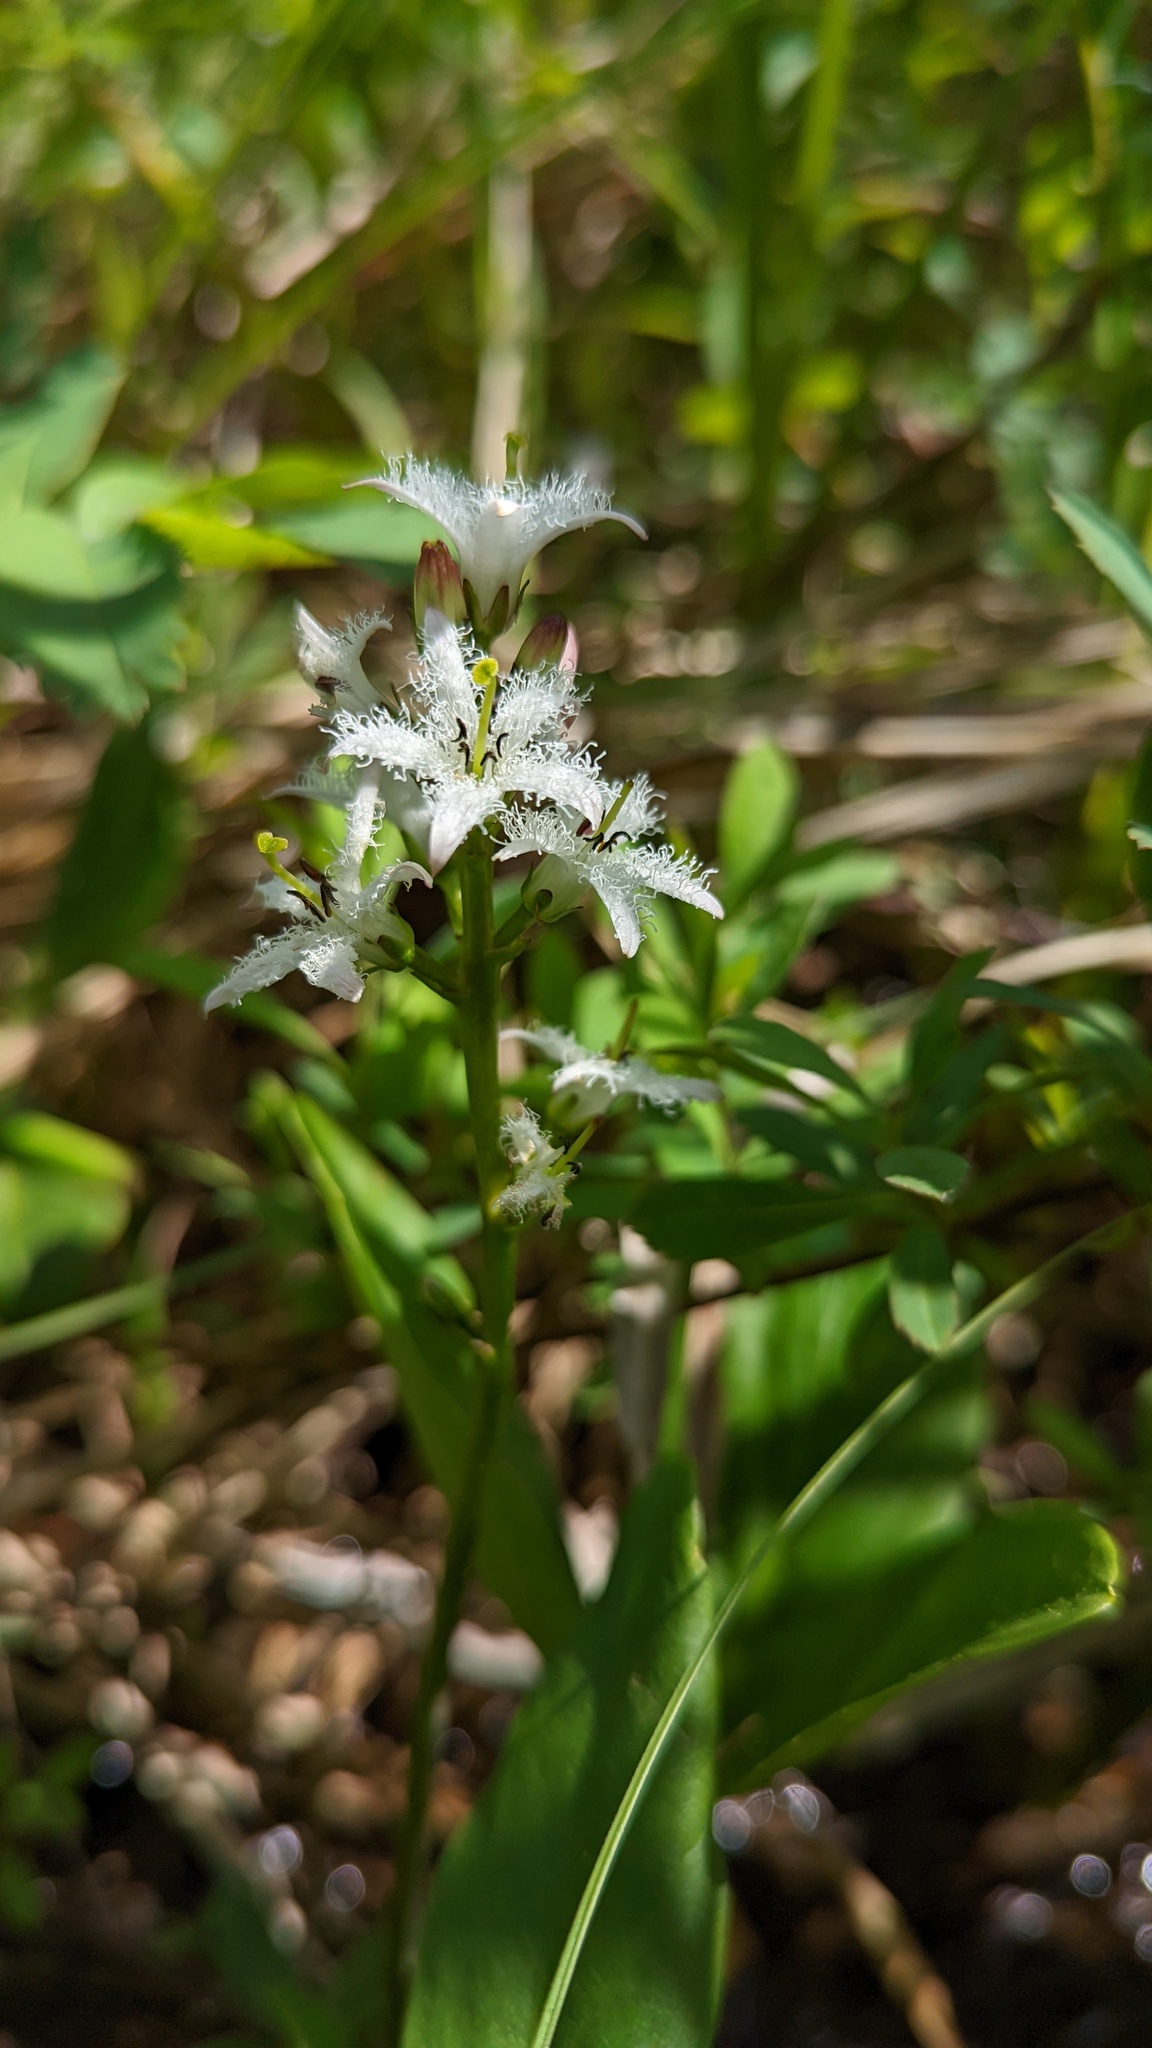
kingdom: Plantae
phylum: Tracheophyta
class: Magnoliopsida
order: Asterales
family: Menyanthaceae
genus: Menyanthes
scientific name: Menyanthes trifoliata
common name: Bogbean
